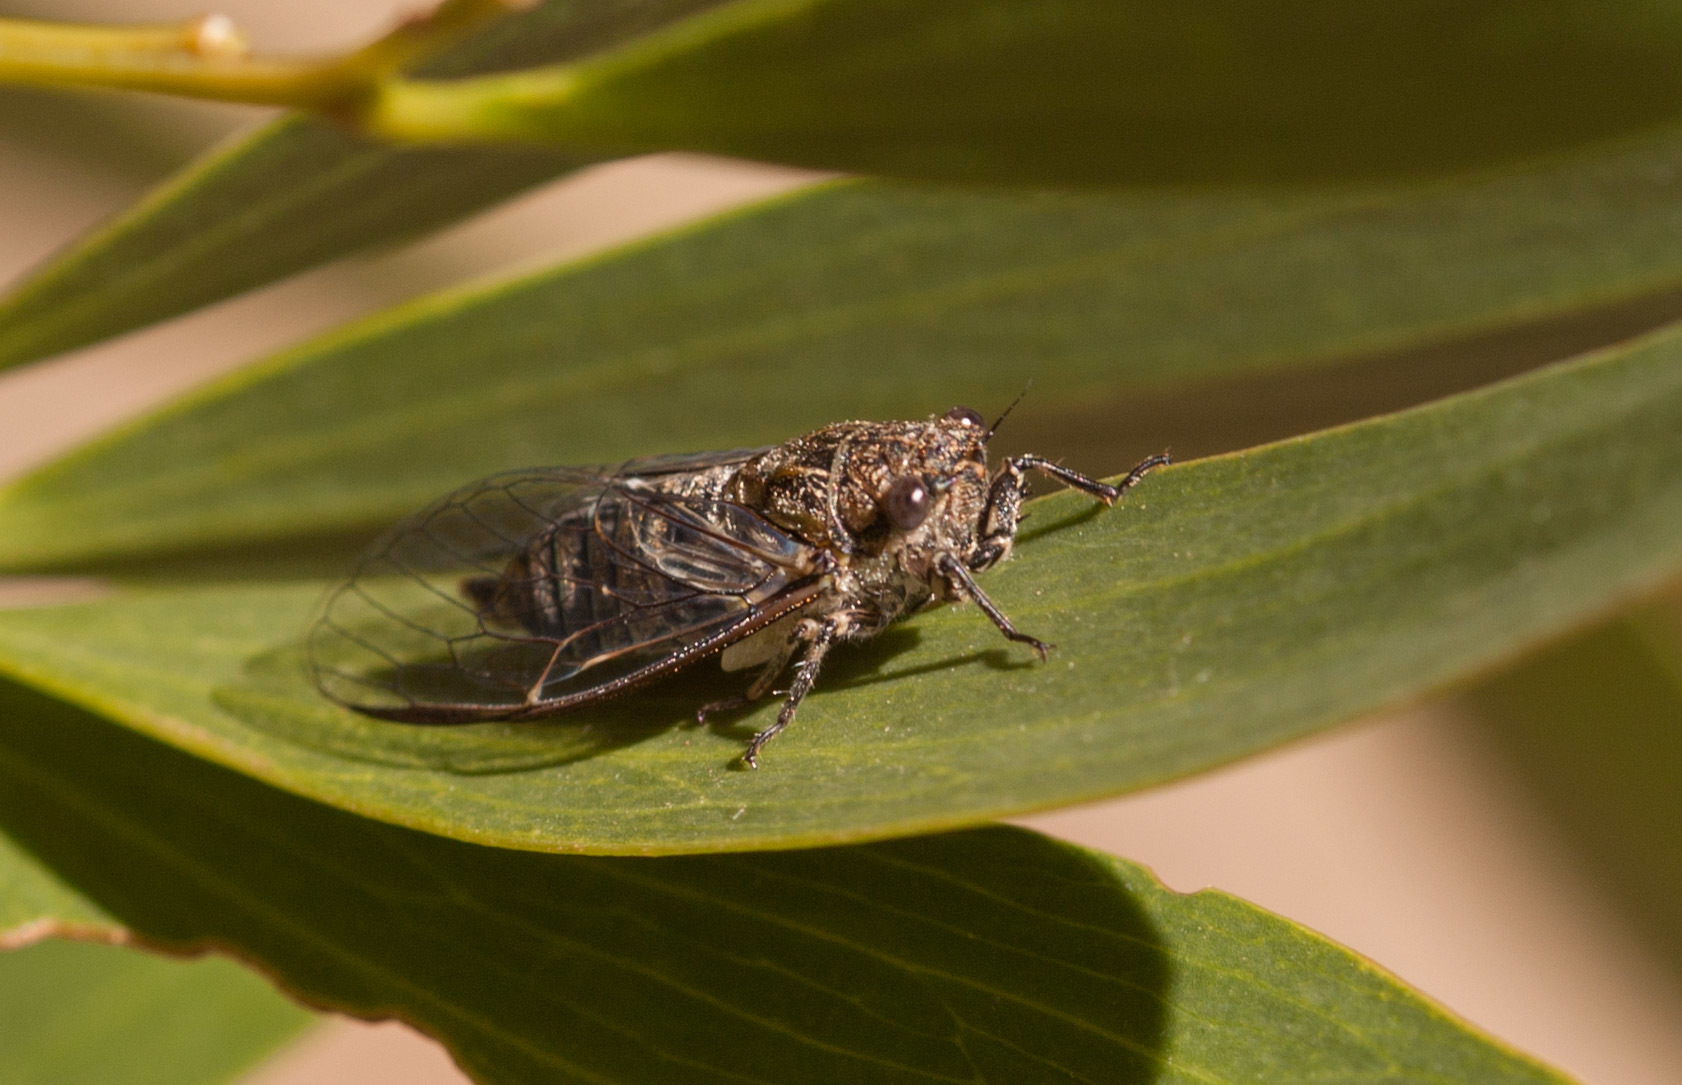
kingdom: Animalia
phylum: Arthropoda
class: Insecta
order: Hemiptera
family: Cicadidae
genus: Physeema
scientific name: Physeema labyrinthica
